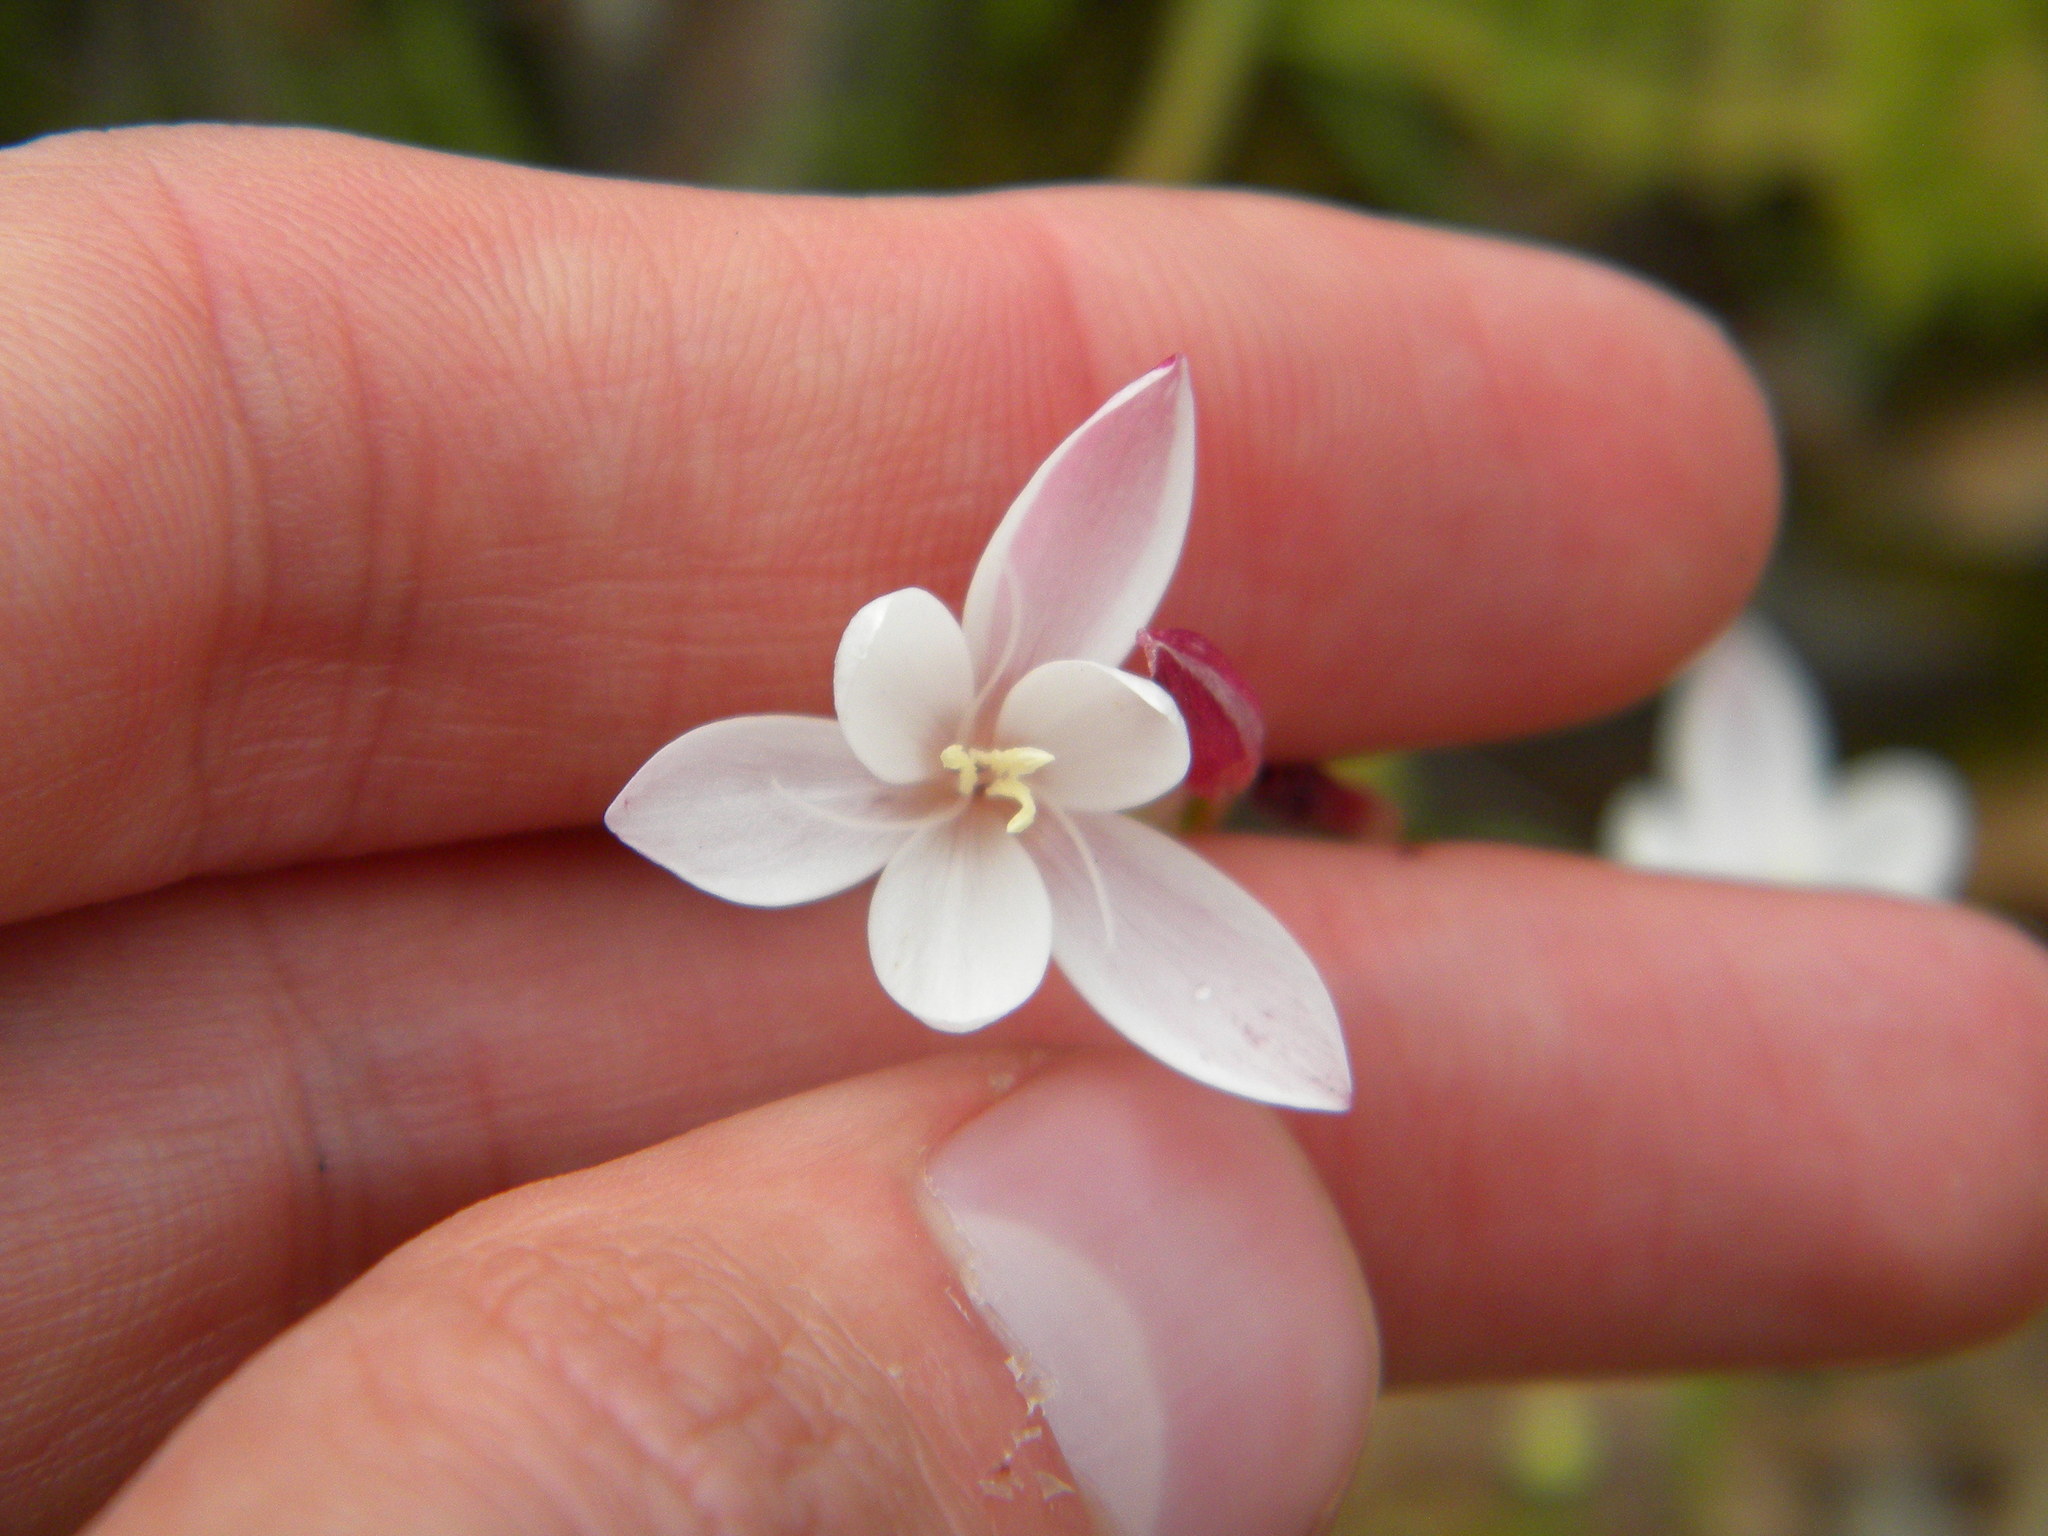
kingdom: Plantae
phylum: Tracheophyta
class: Liliopsida
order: Asparagales
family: Iridaceae
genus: Hesperantha
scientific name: Hesperantha falcata
